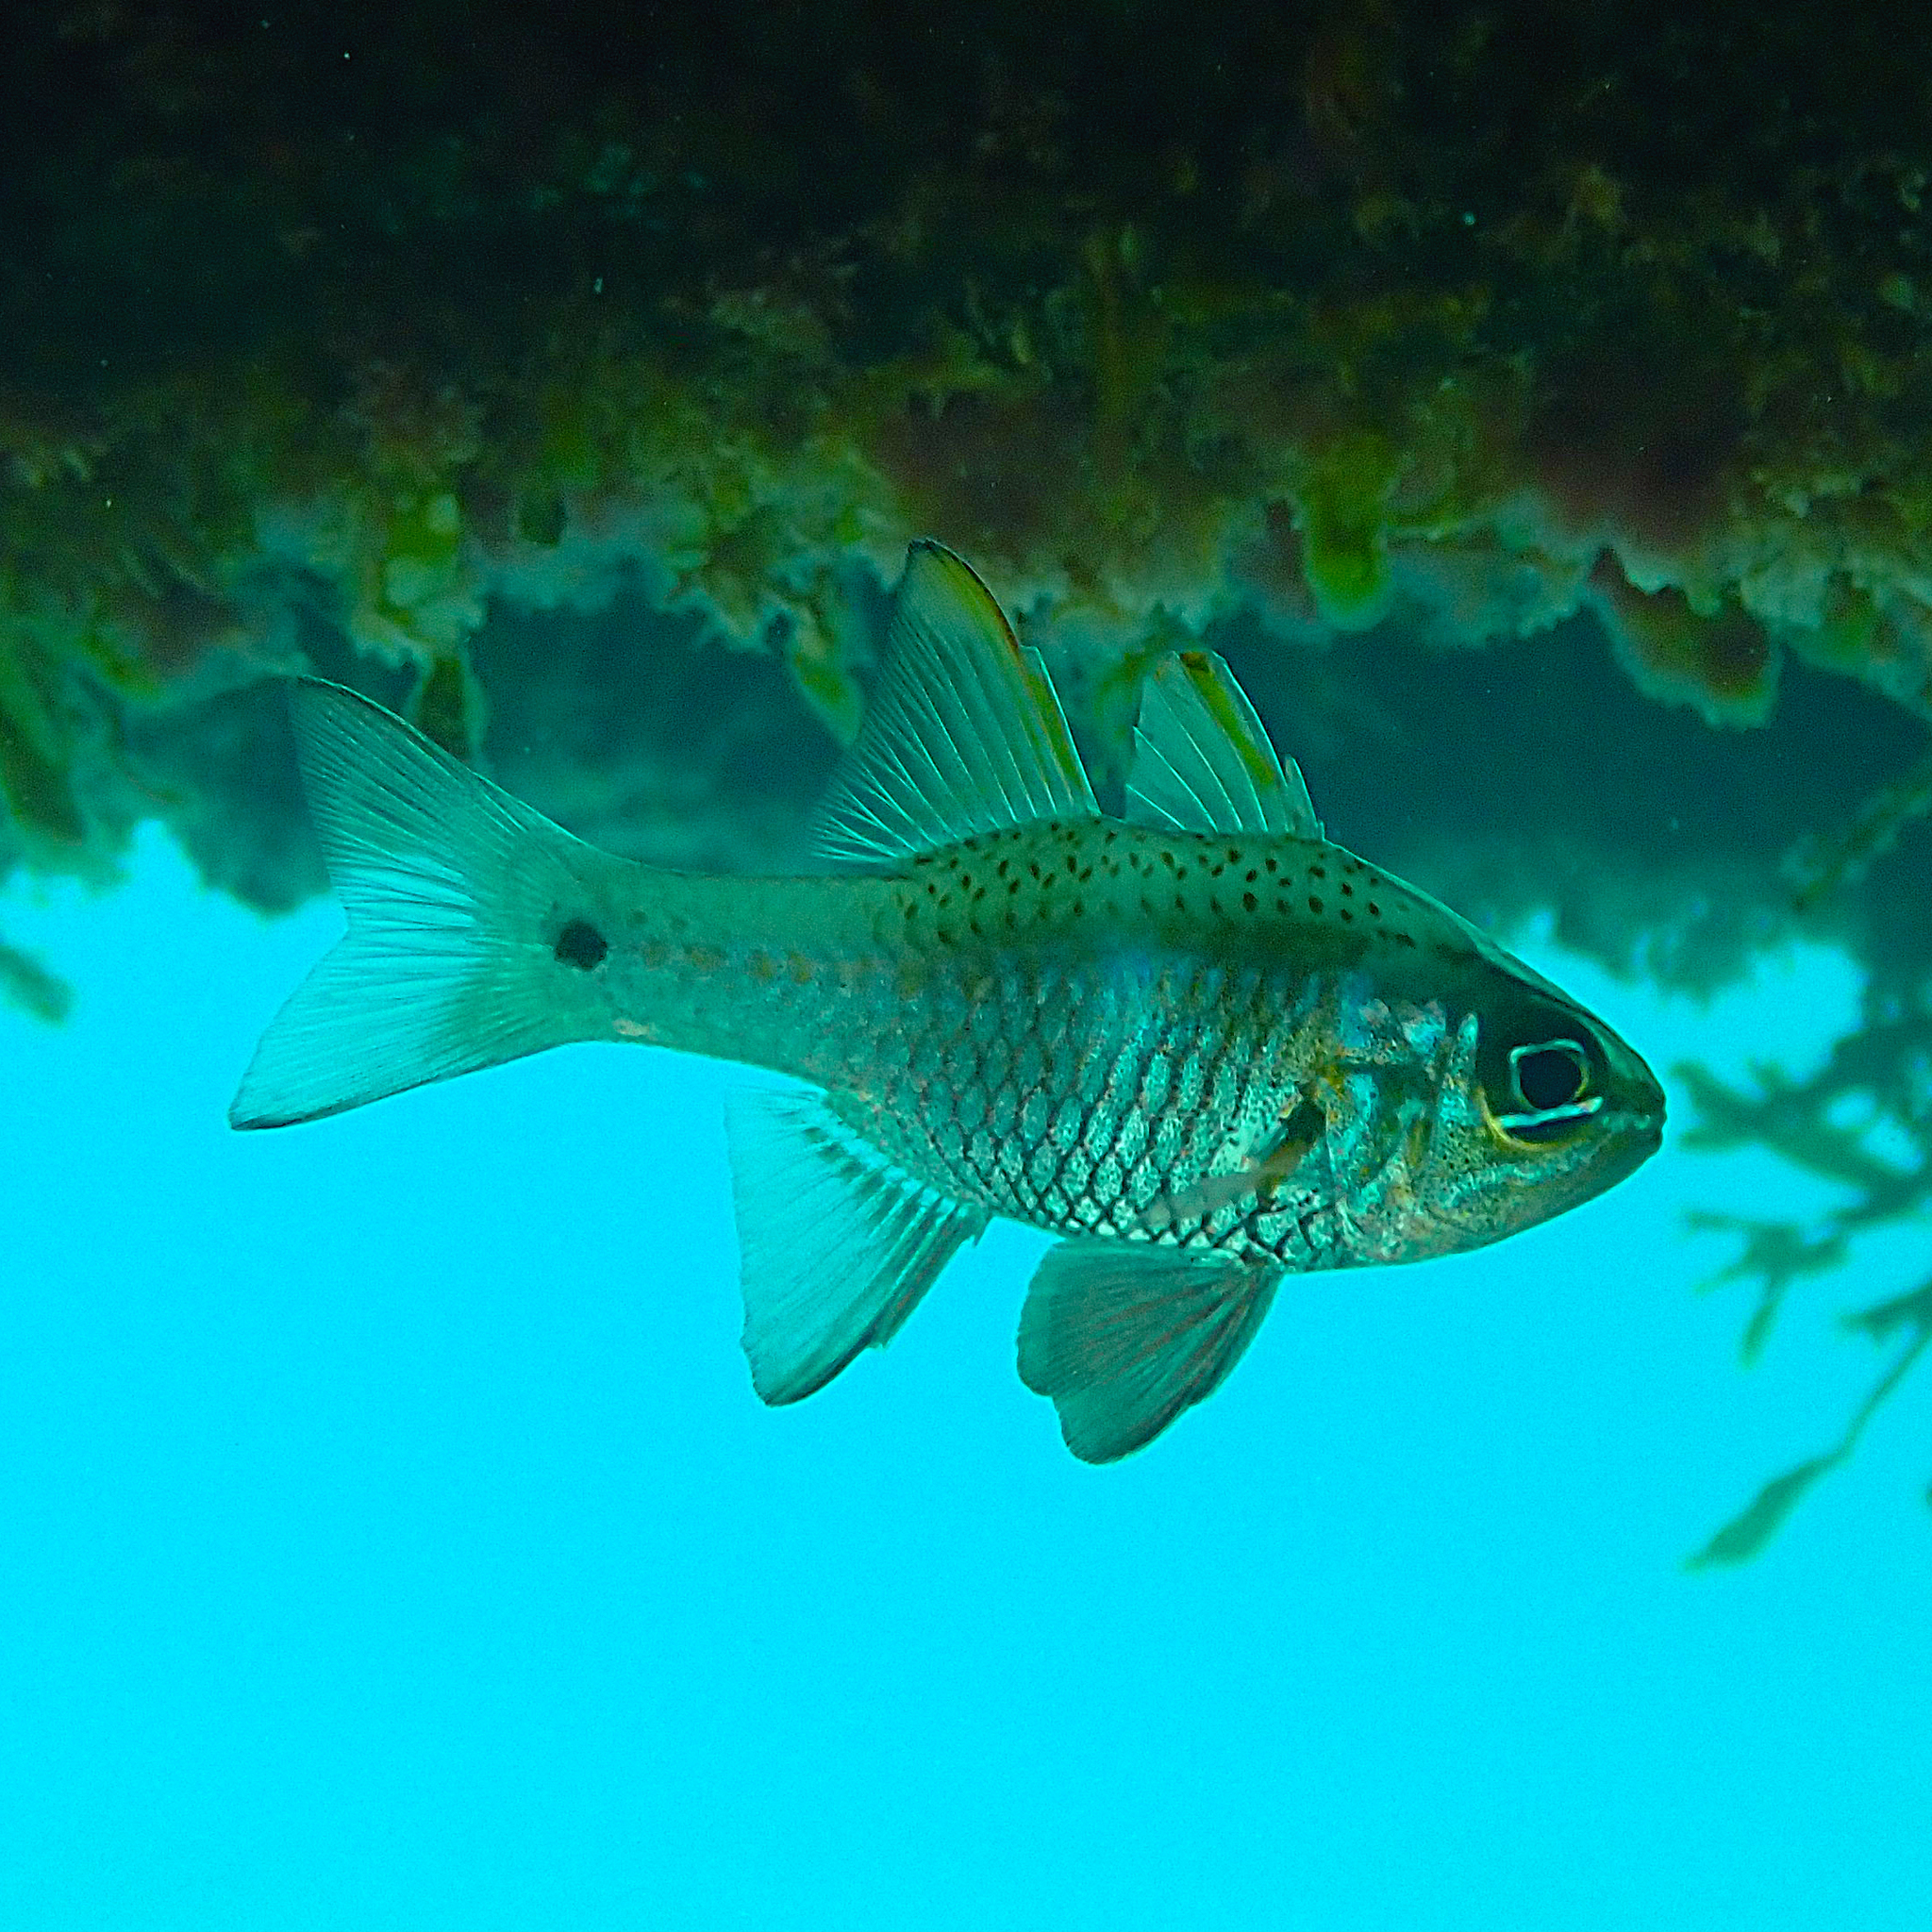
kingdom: Animalia
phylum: Chordata
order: Perciformes
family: Apogonidae
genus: Ostorhinchus
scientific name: Ostorhinchus norfolcensis
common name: Norfolk cardinalfish
